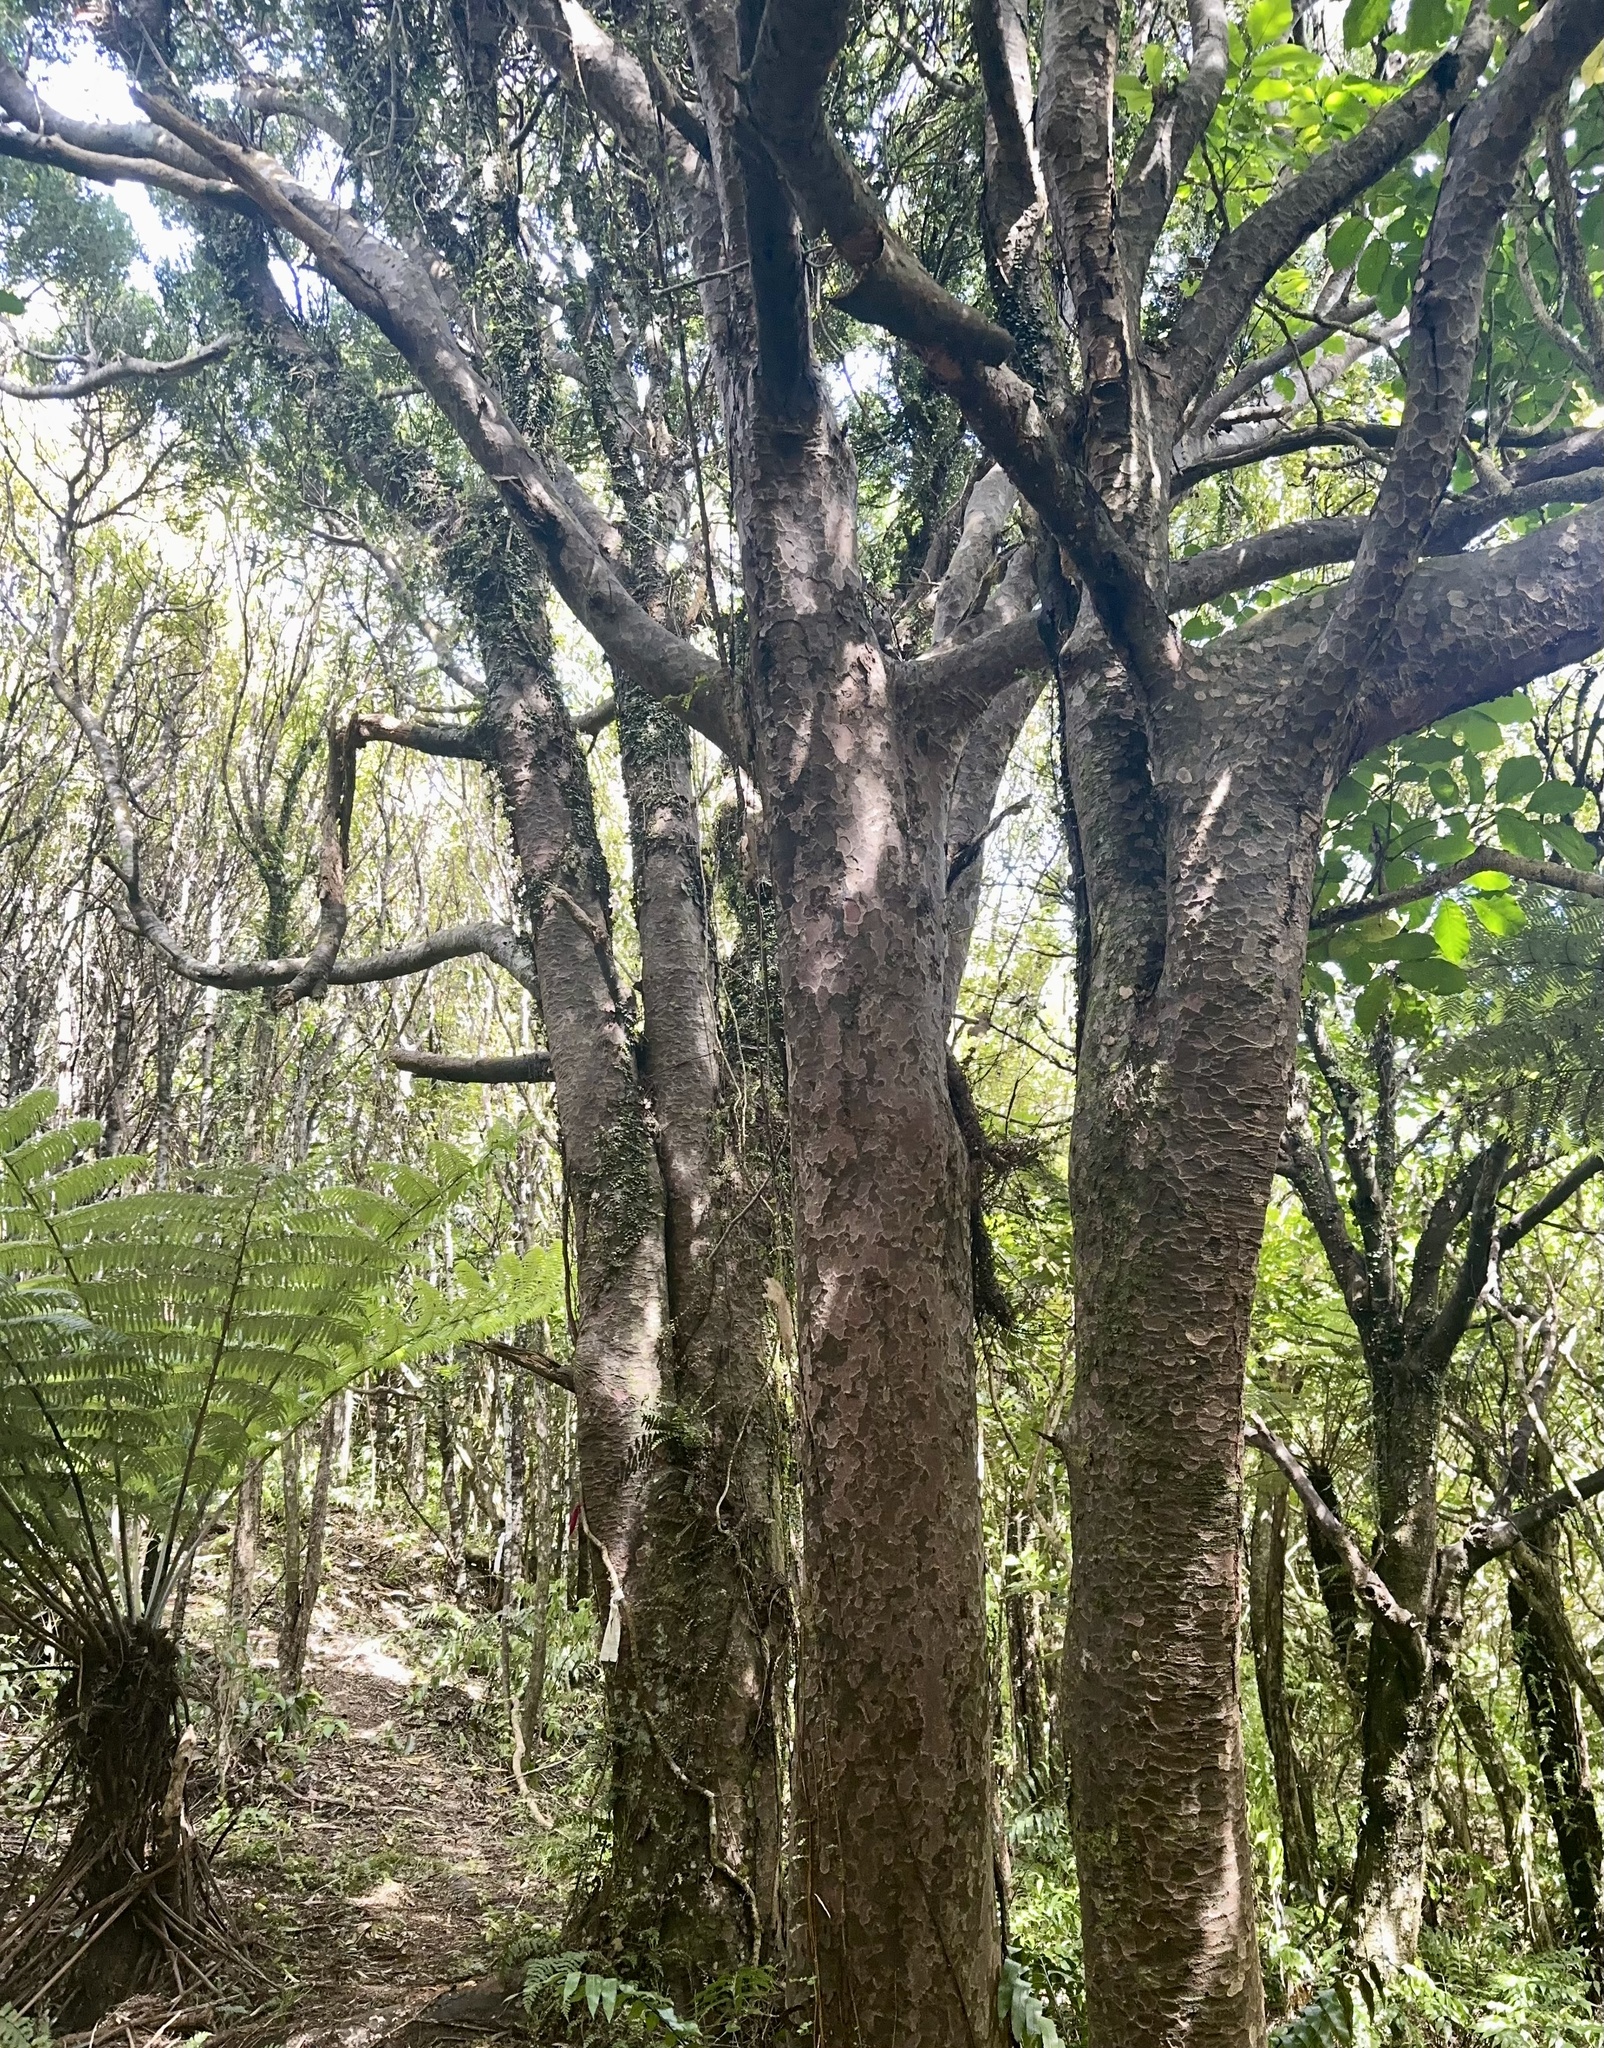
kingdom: Plantae
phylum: Tracheophyta
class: Pinopsida
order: Pinales
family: Podocarpaceae
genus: Prumnopitys
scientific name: Prumnopitys taxifolia
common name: Matai
